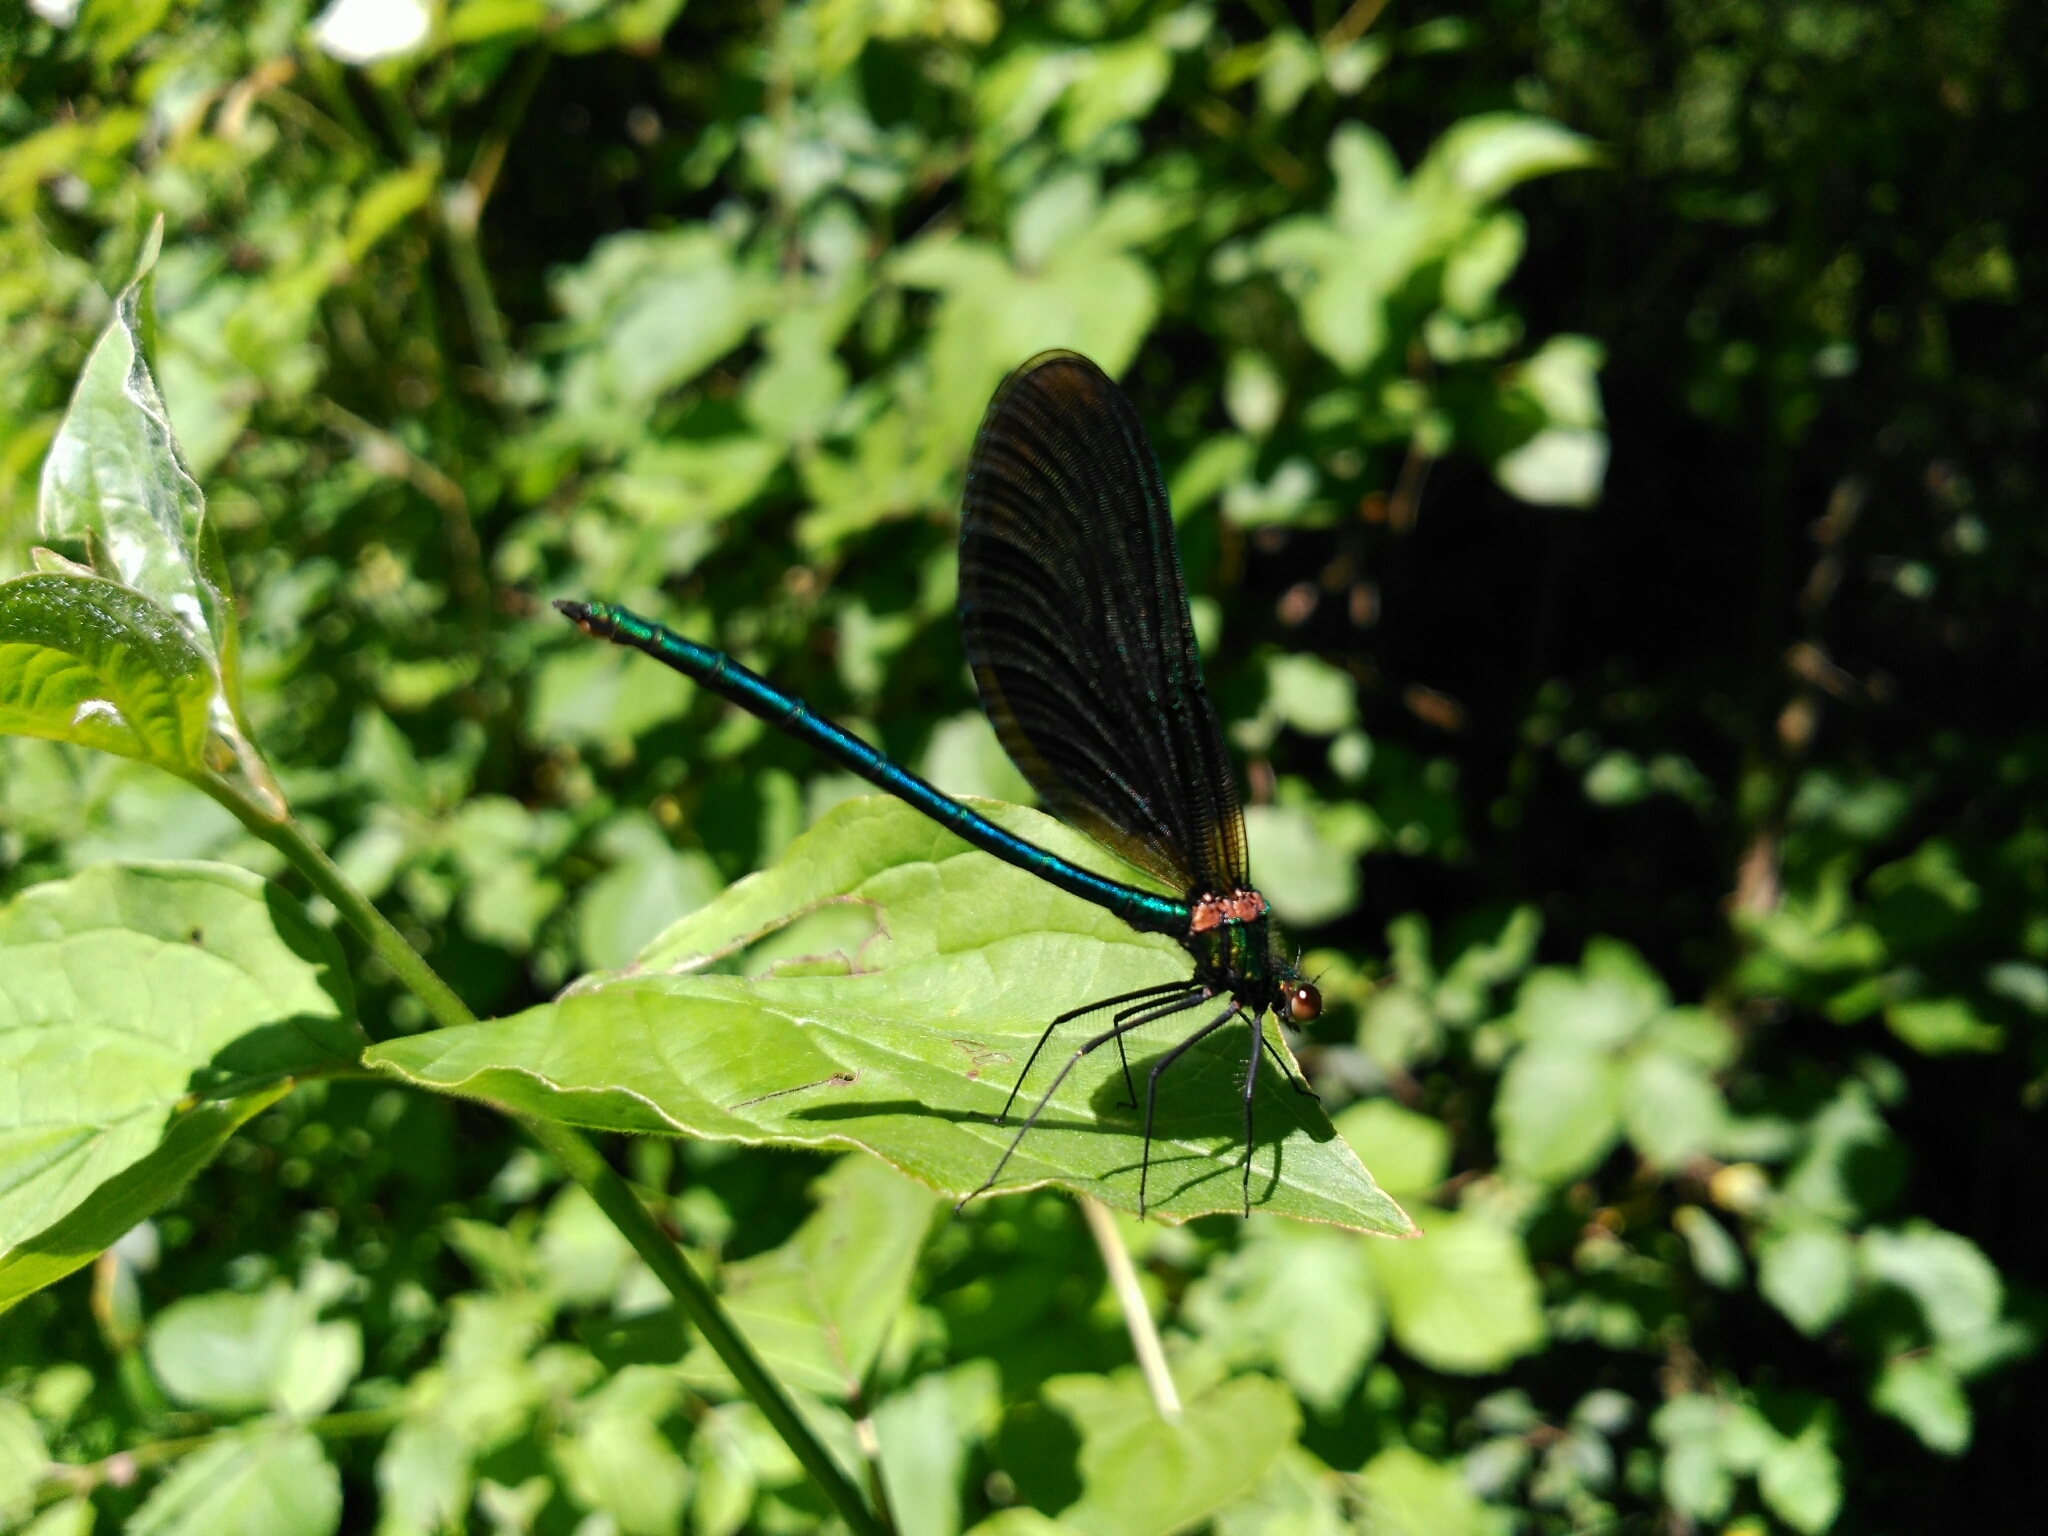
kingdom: Animalia
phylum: Arthropoda
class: Insecta
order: Odonata
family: Calopterygidae
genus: Calopteryx
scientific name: Calopteryx virgo
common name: Beautiful demoiselle
